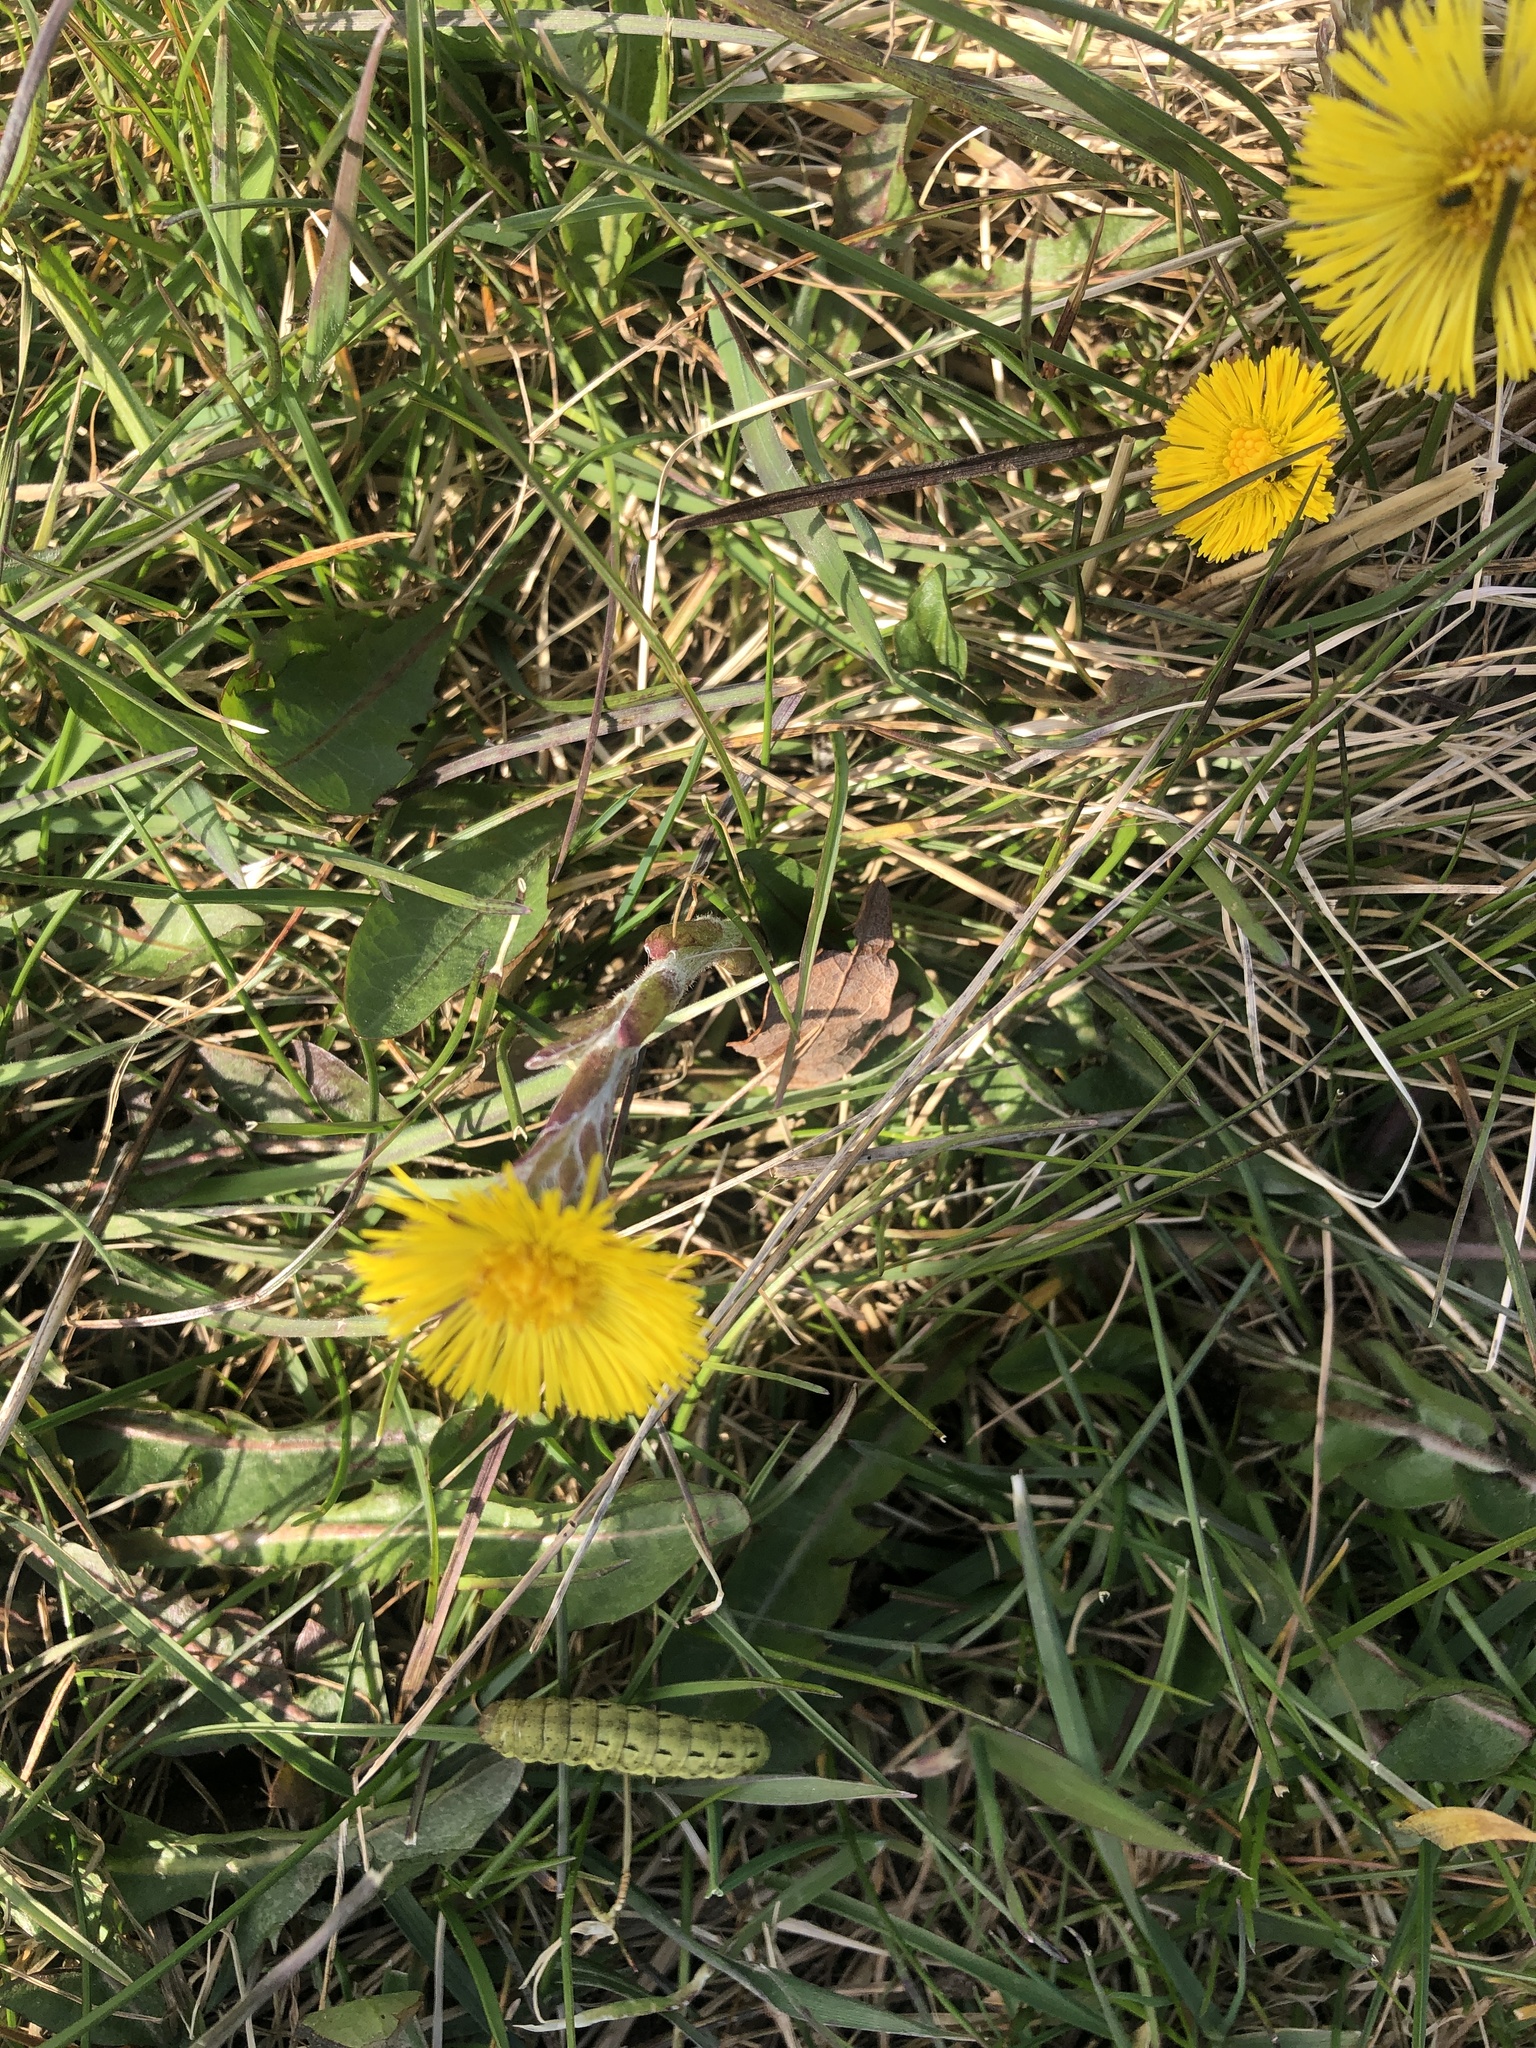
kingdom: Plantae
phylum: Tracheophyta
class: Magnoliopsida
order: Asterales
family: Asteraceae
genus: Tussilago
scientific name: Tussilago farfara
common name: Coltsfoot
